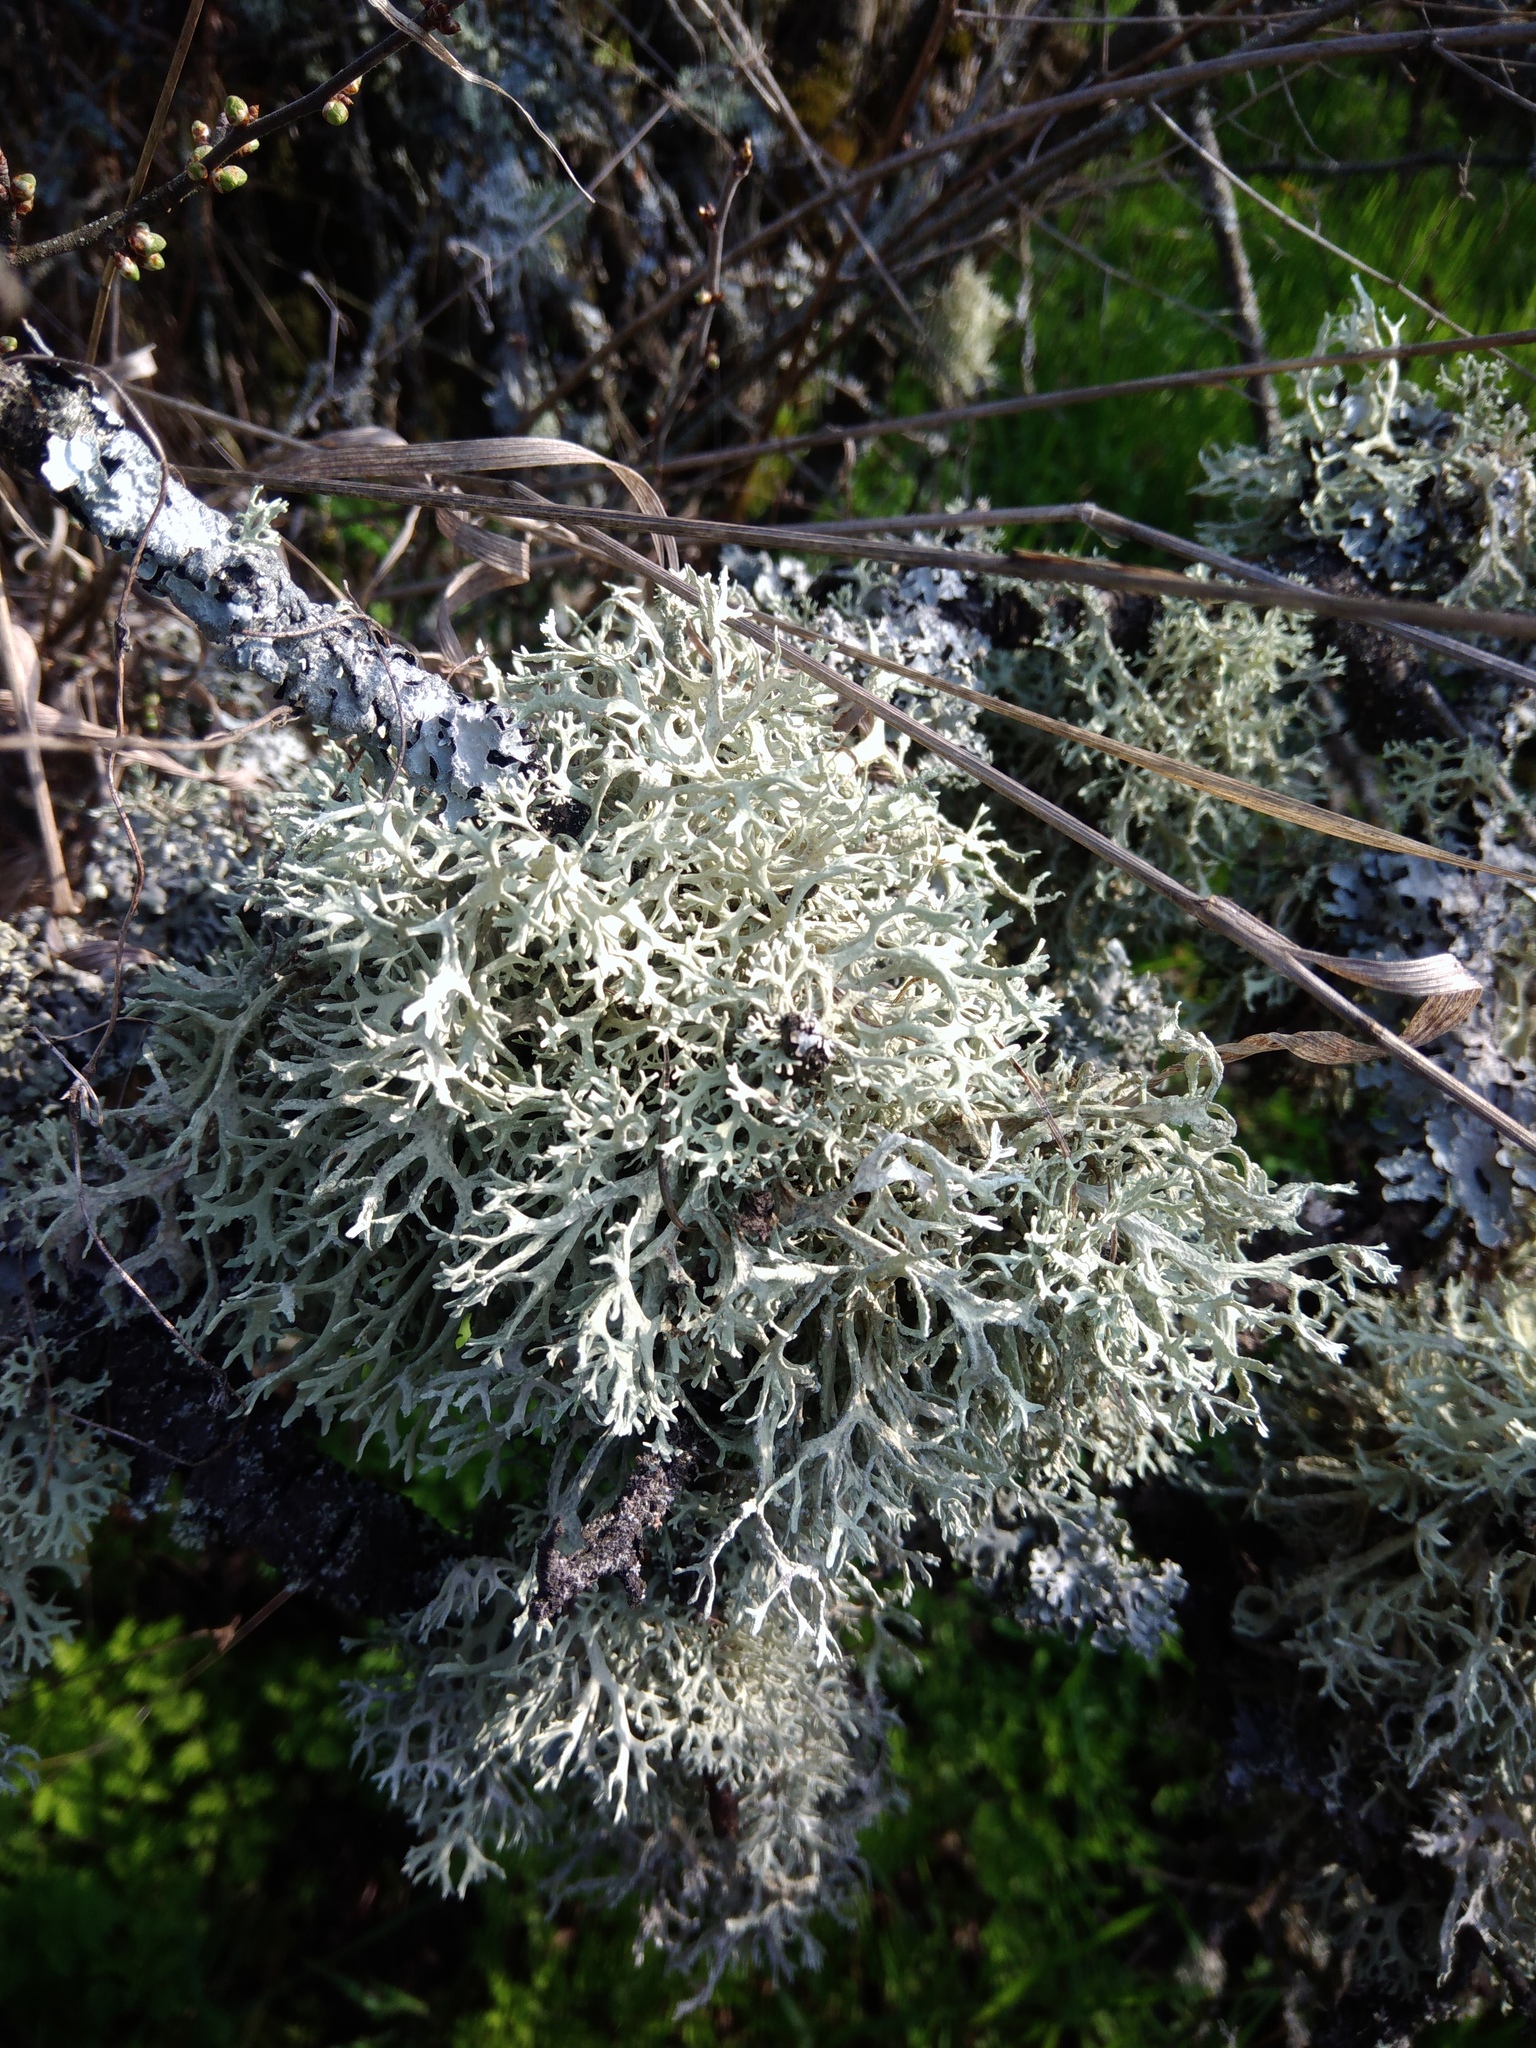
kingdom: Fungi
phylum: Ascomycota
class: Lecanoromycetes
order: Lecanorales
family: Parmeliaceae
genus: Evernia
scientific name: Evernia prunastri
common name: Oak moss
